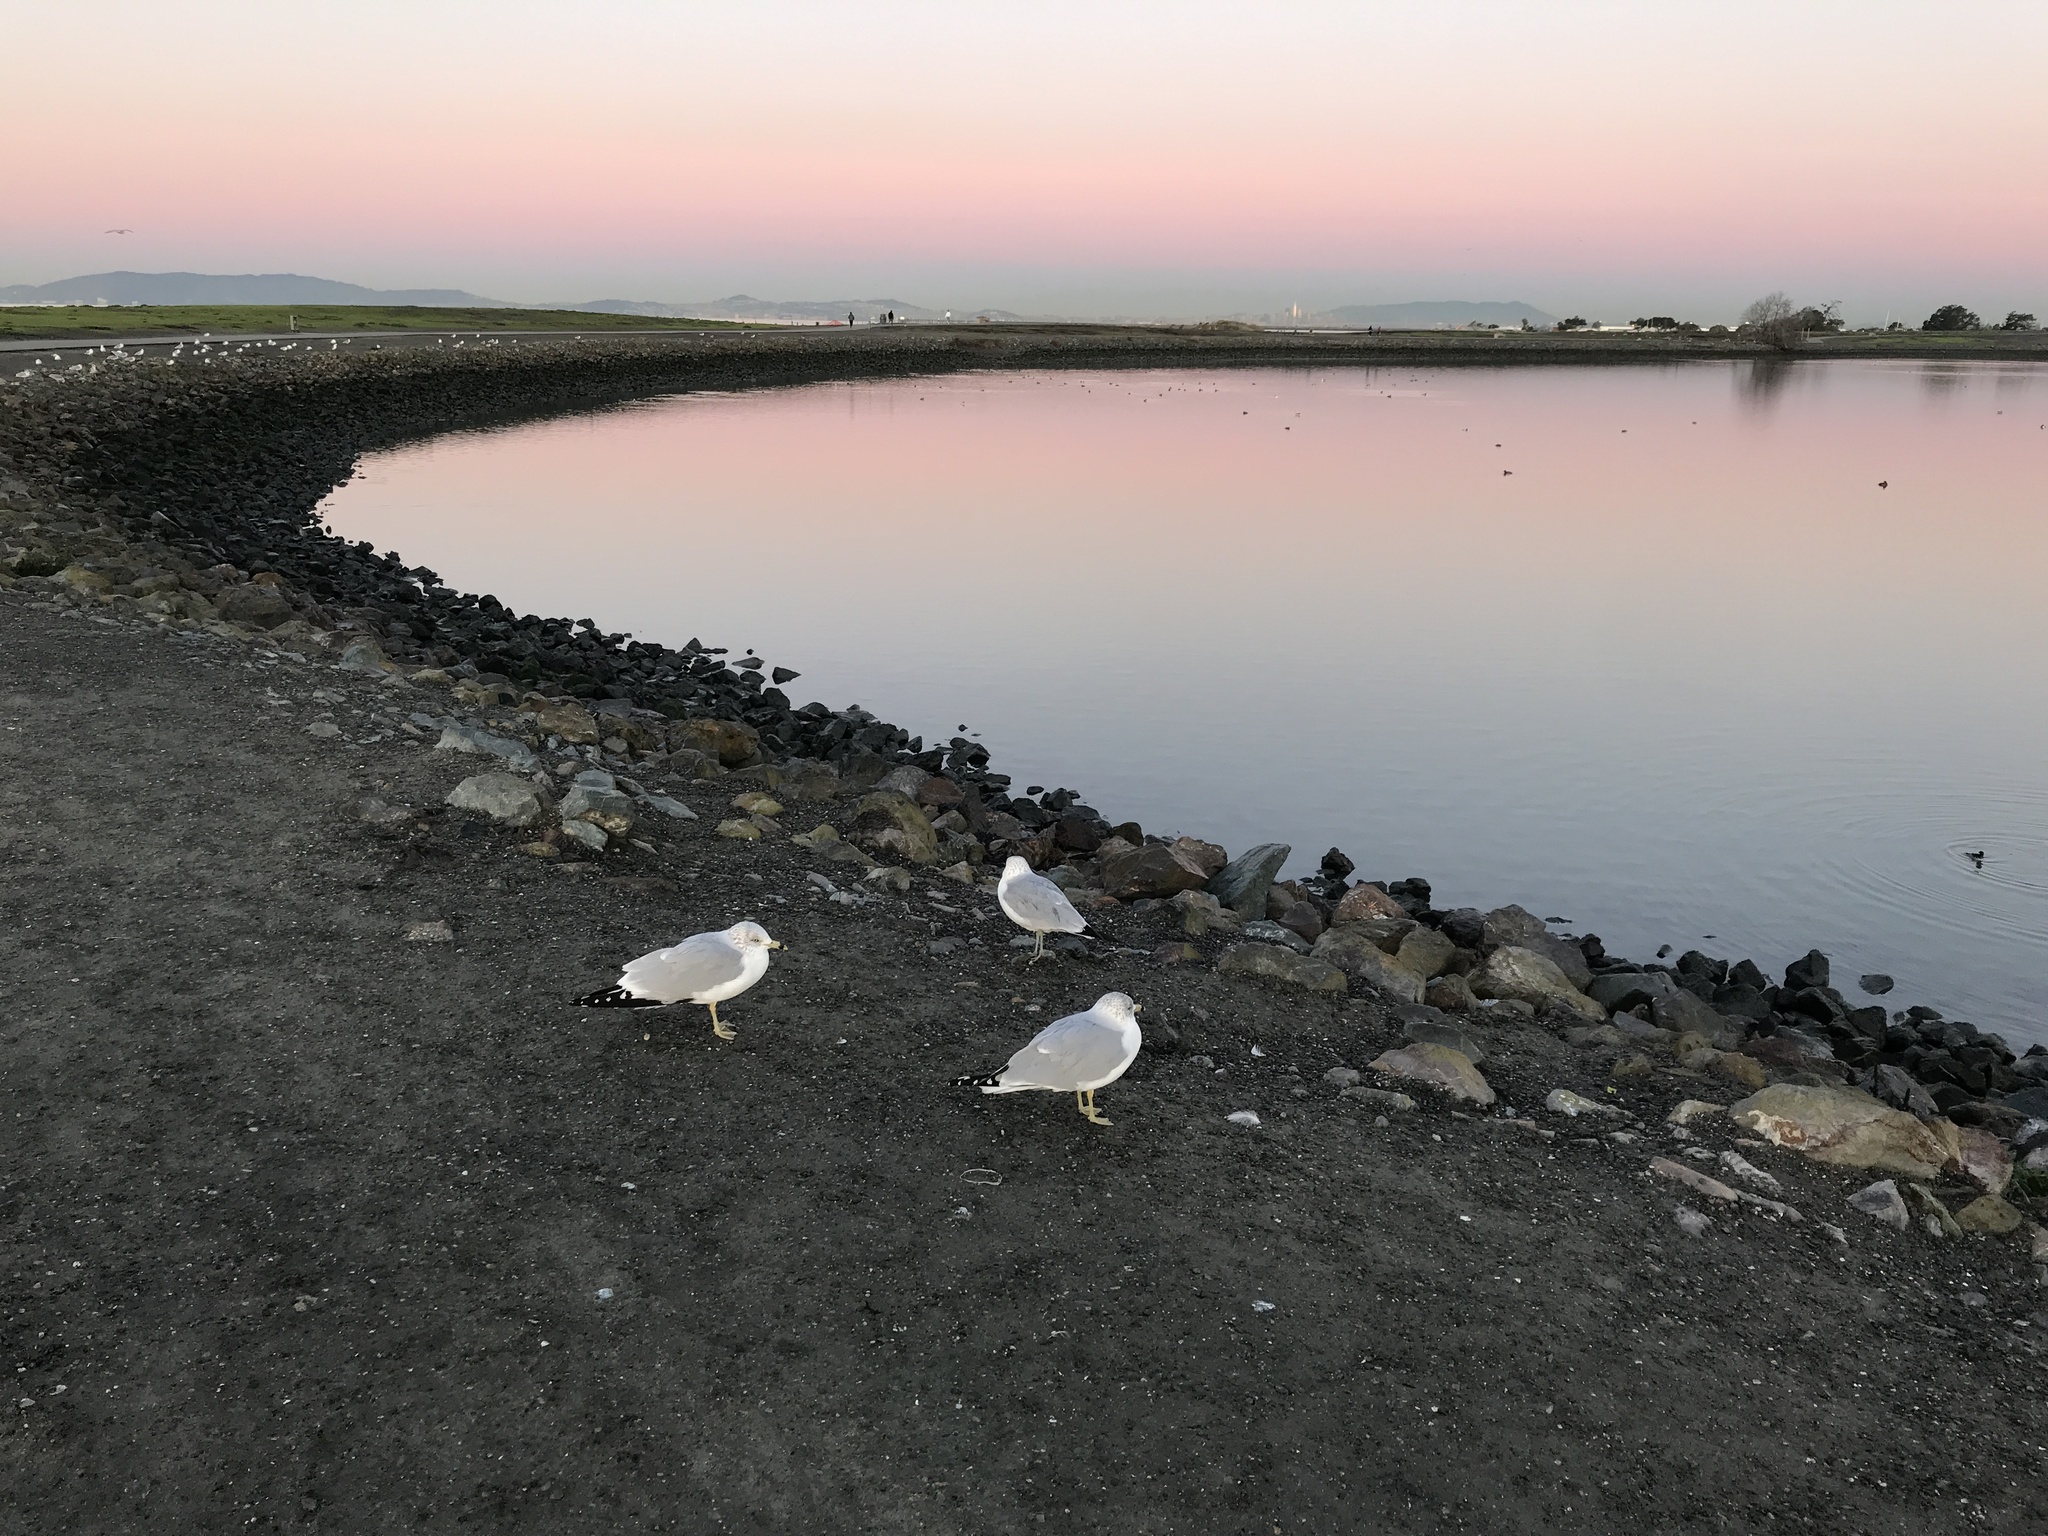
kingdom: Animalia
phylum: Chordata
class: Aves
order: Charadriiformes
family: Laridae
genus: Larus
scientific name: Larus delawarensis
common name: Ring-billed gull
